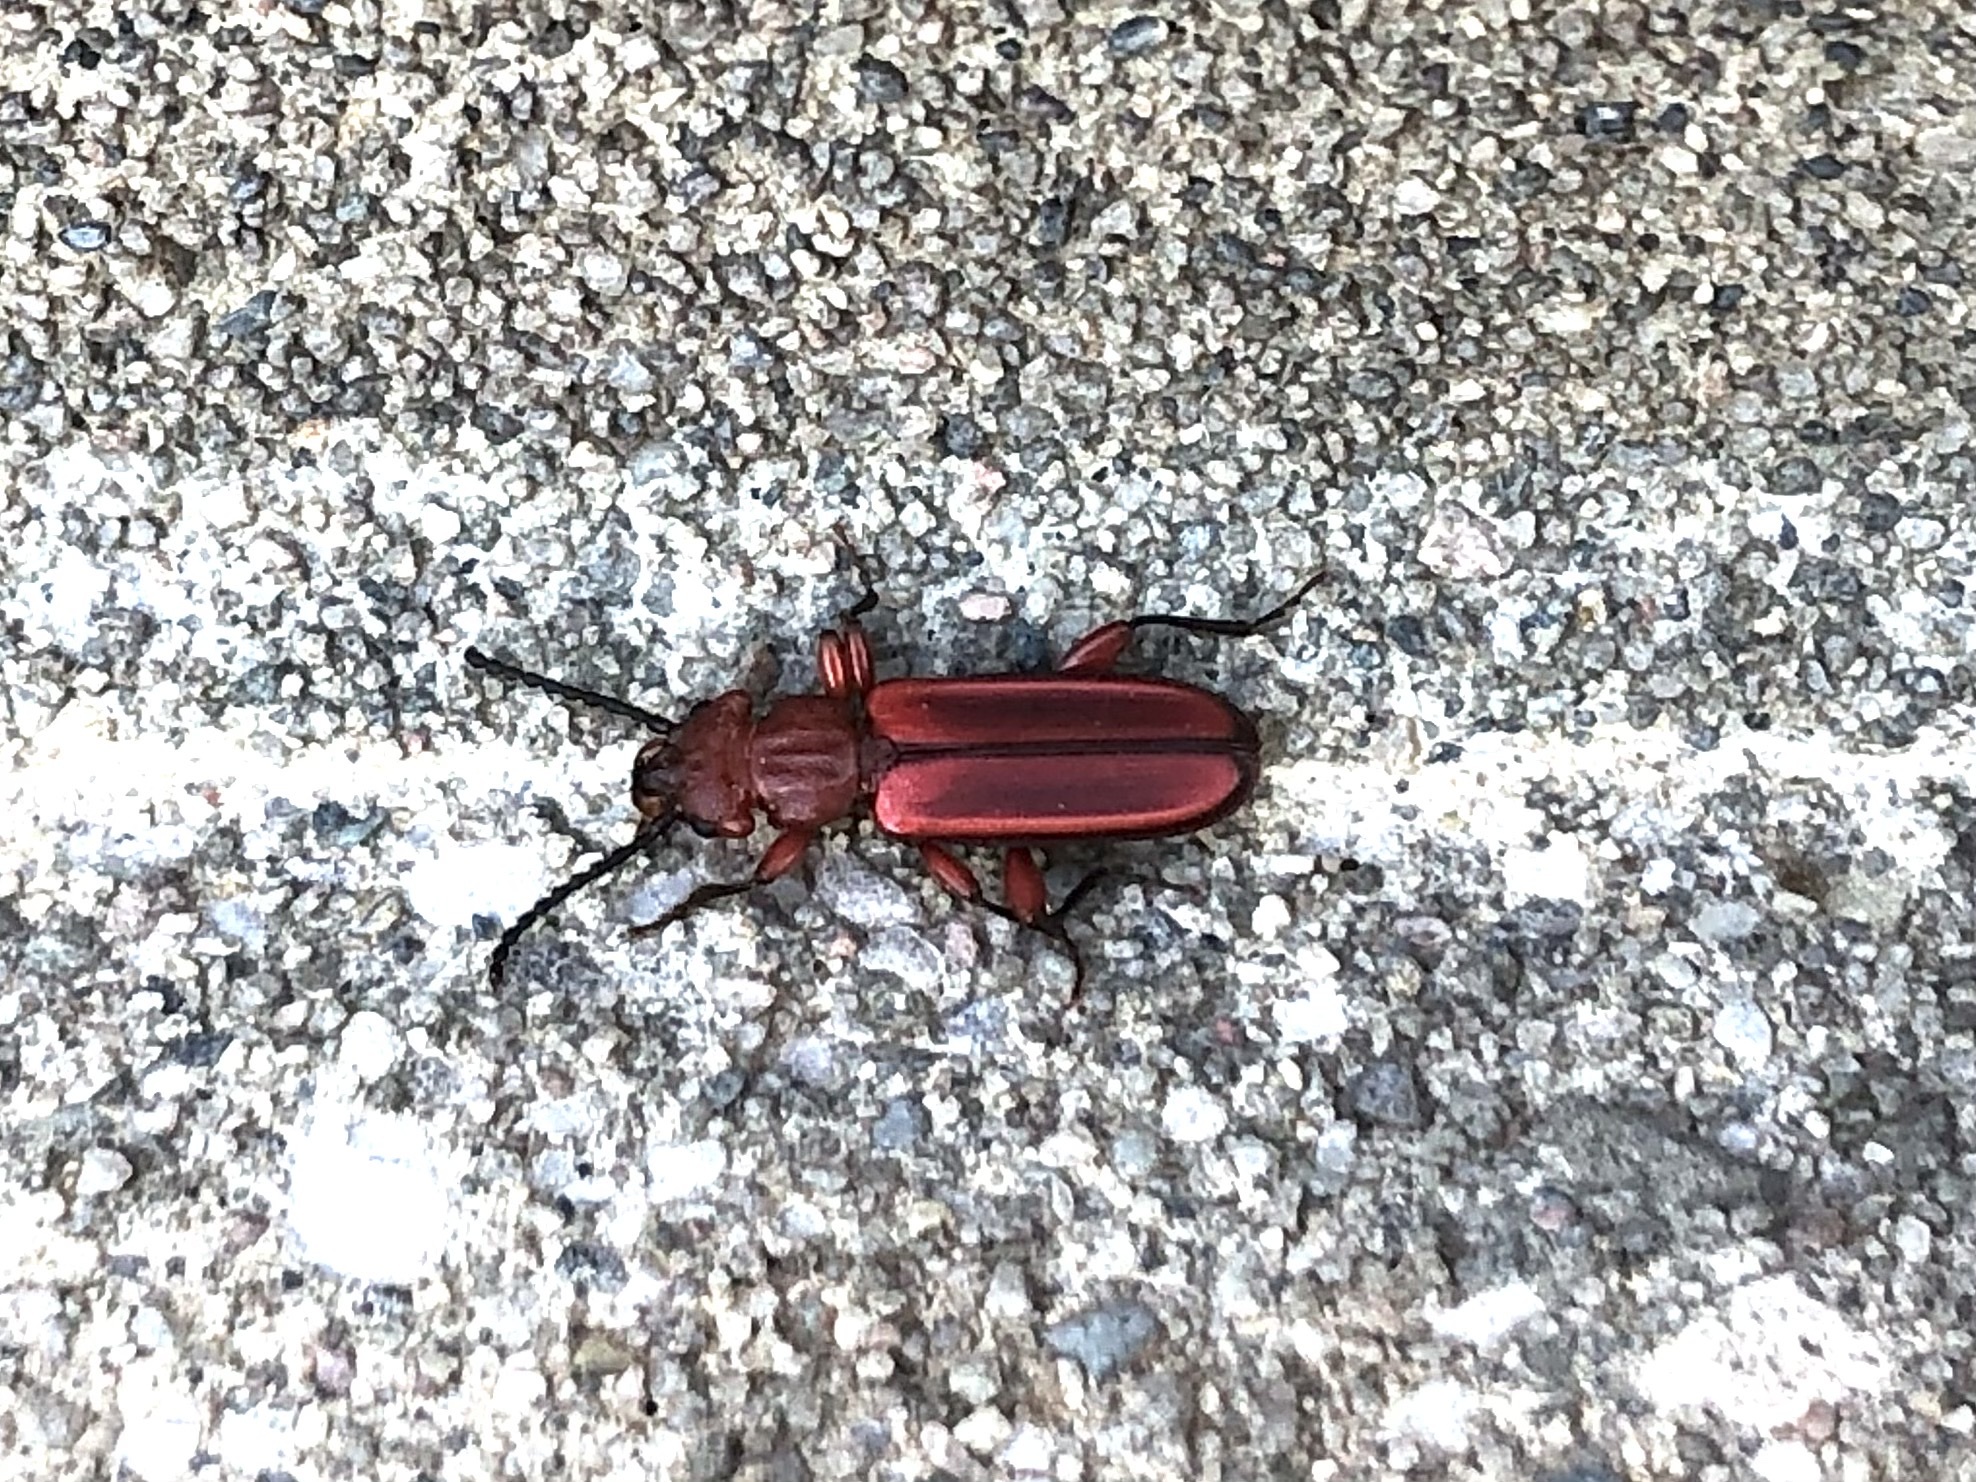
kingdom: Animalia
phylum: Arthropoda
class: Insecta
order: Coleoptera
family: Cucujidae
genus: Cucujus
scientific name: Cucujus clavipes
